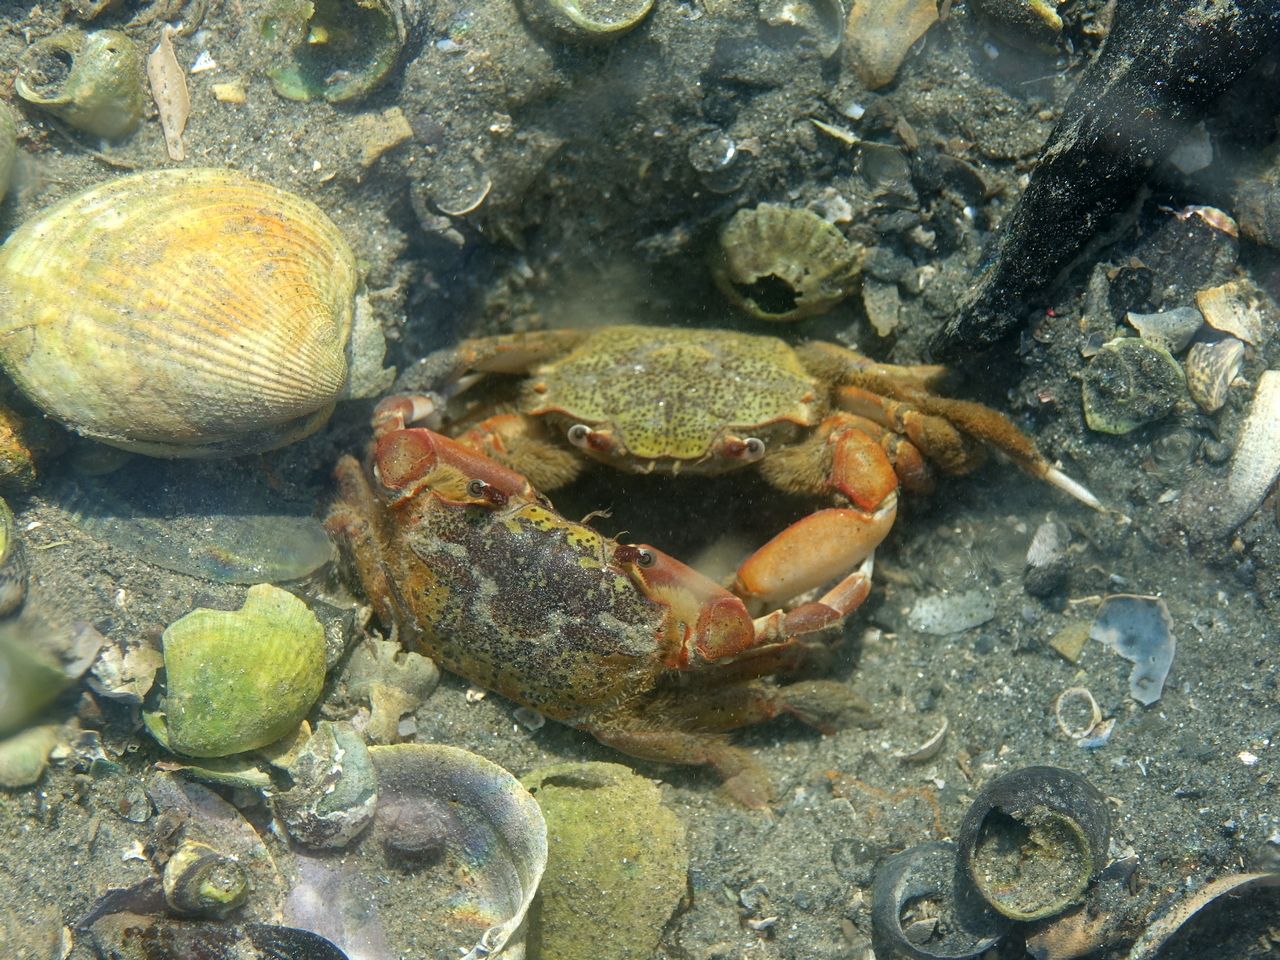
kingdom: Animalia
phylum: Arthropoda
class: Malacostraca
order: Decapoda
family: Macrophthalmidae
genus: Hemiplax
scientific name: Hemiplax hirtipes
